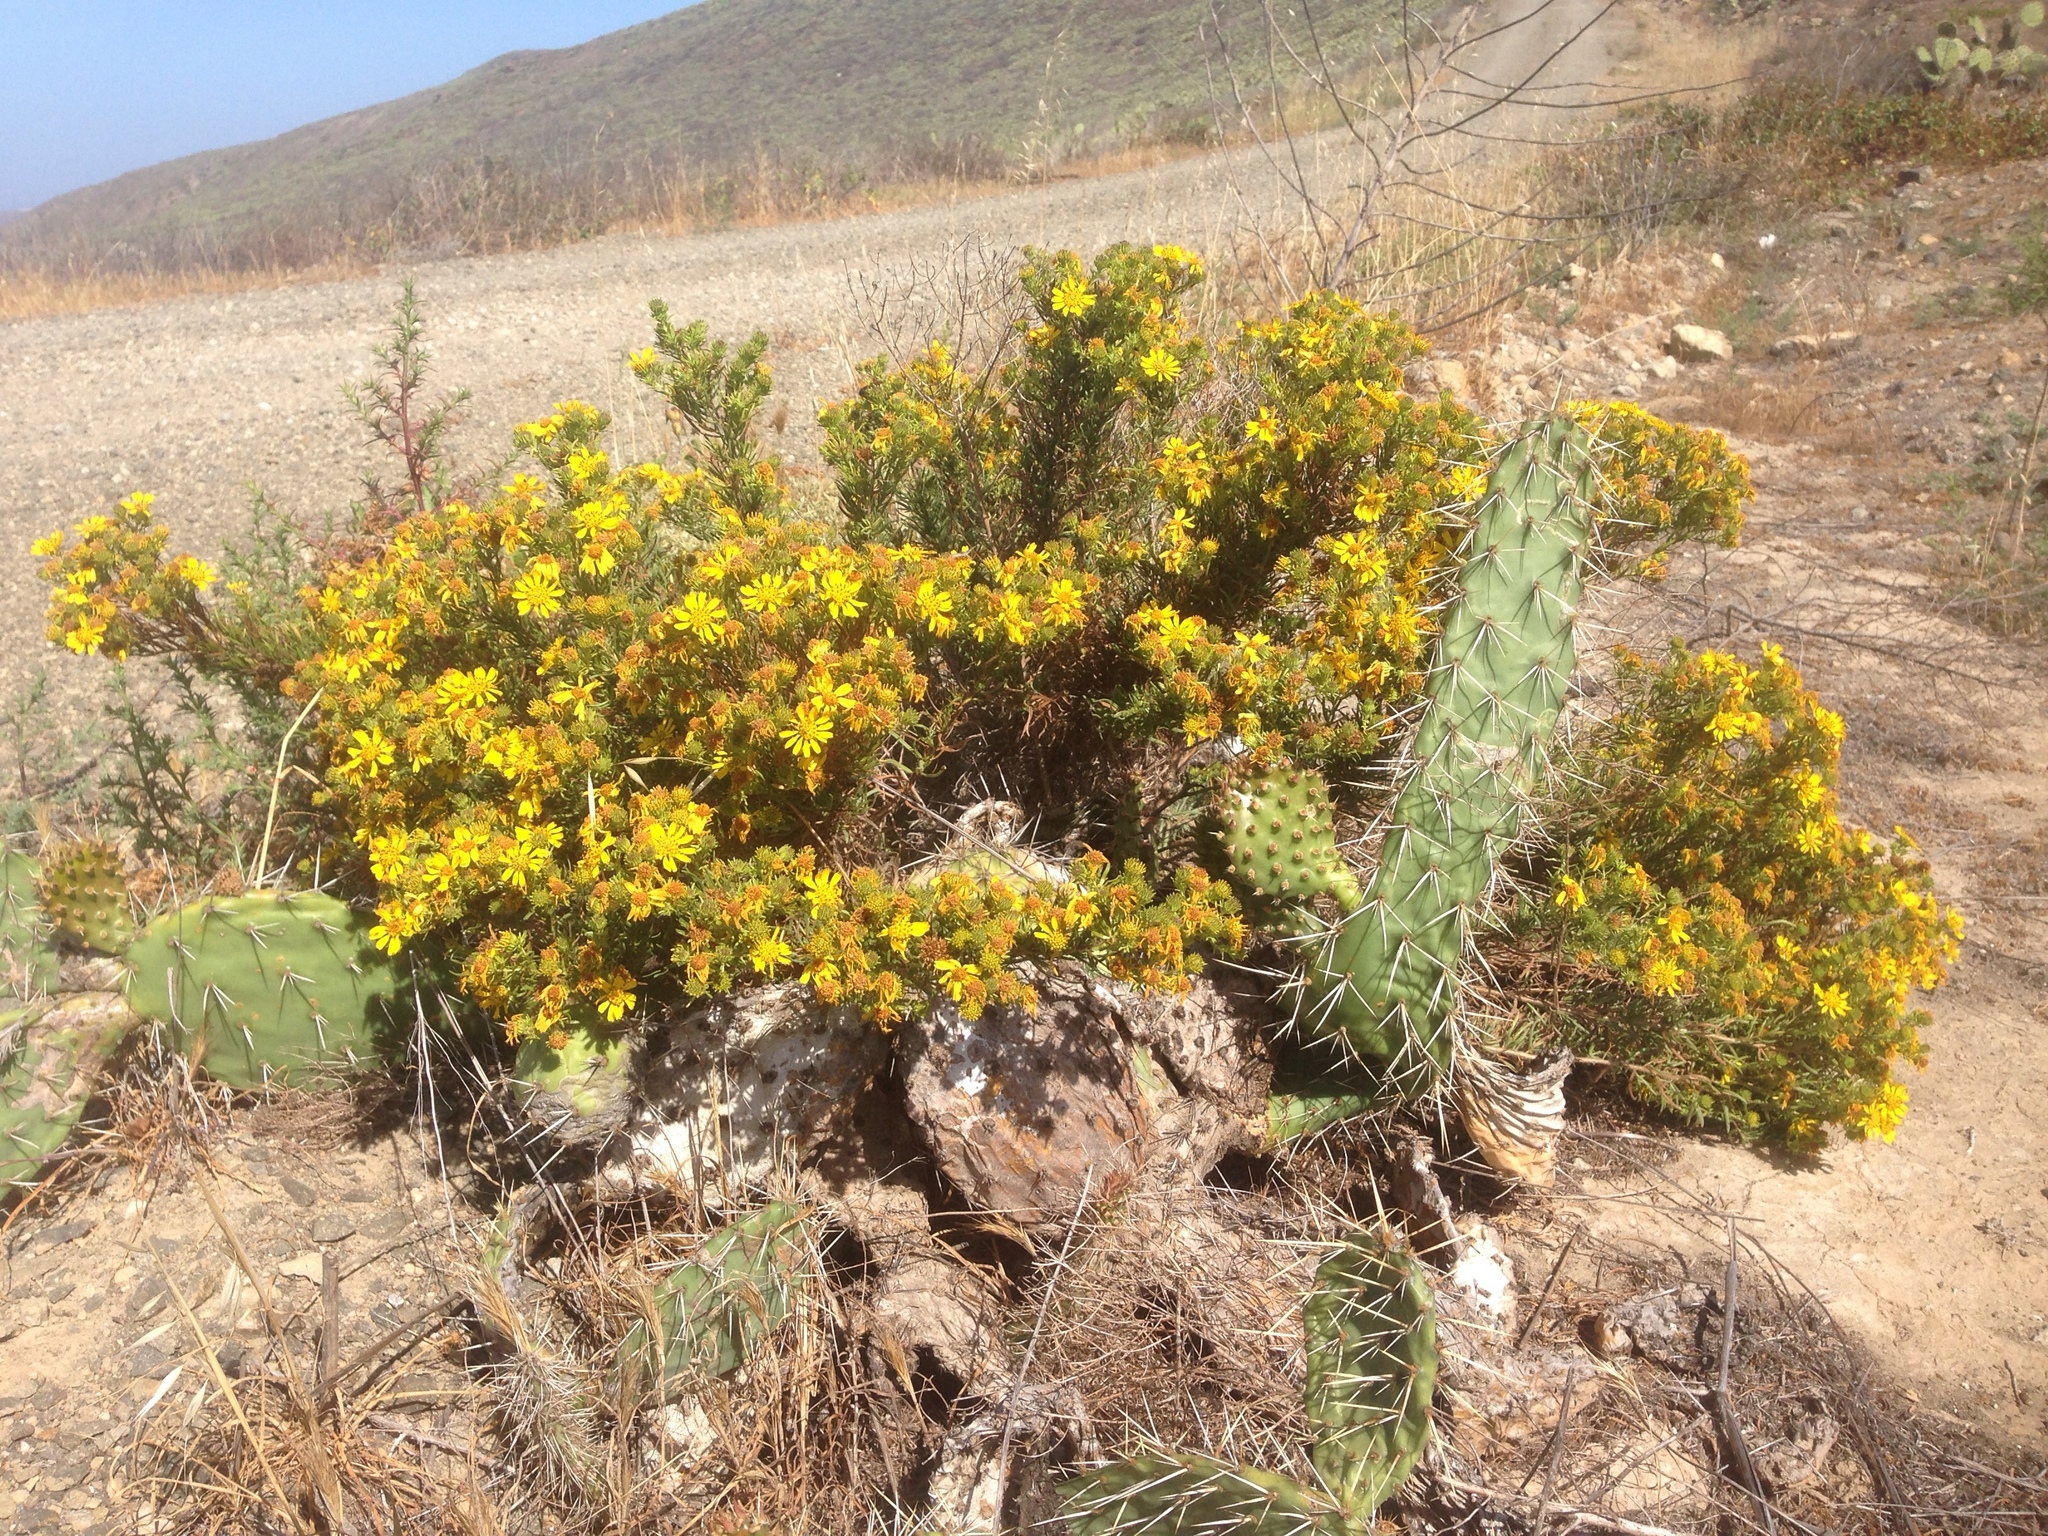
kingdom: Plantae
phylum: Tracheophyta
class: Magnoliopsida
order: Asterales
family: Asteraceae
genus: Deinandra
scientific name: Deinandra clementina
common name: Island tarplant
